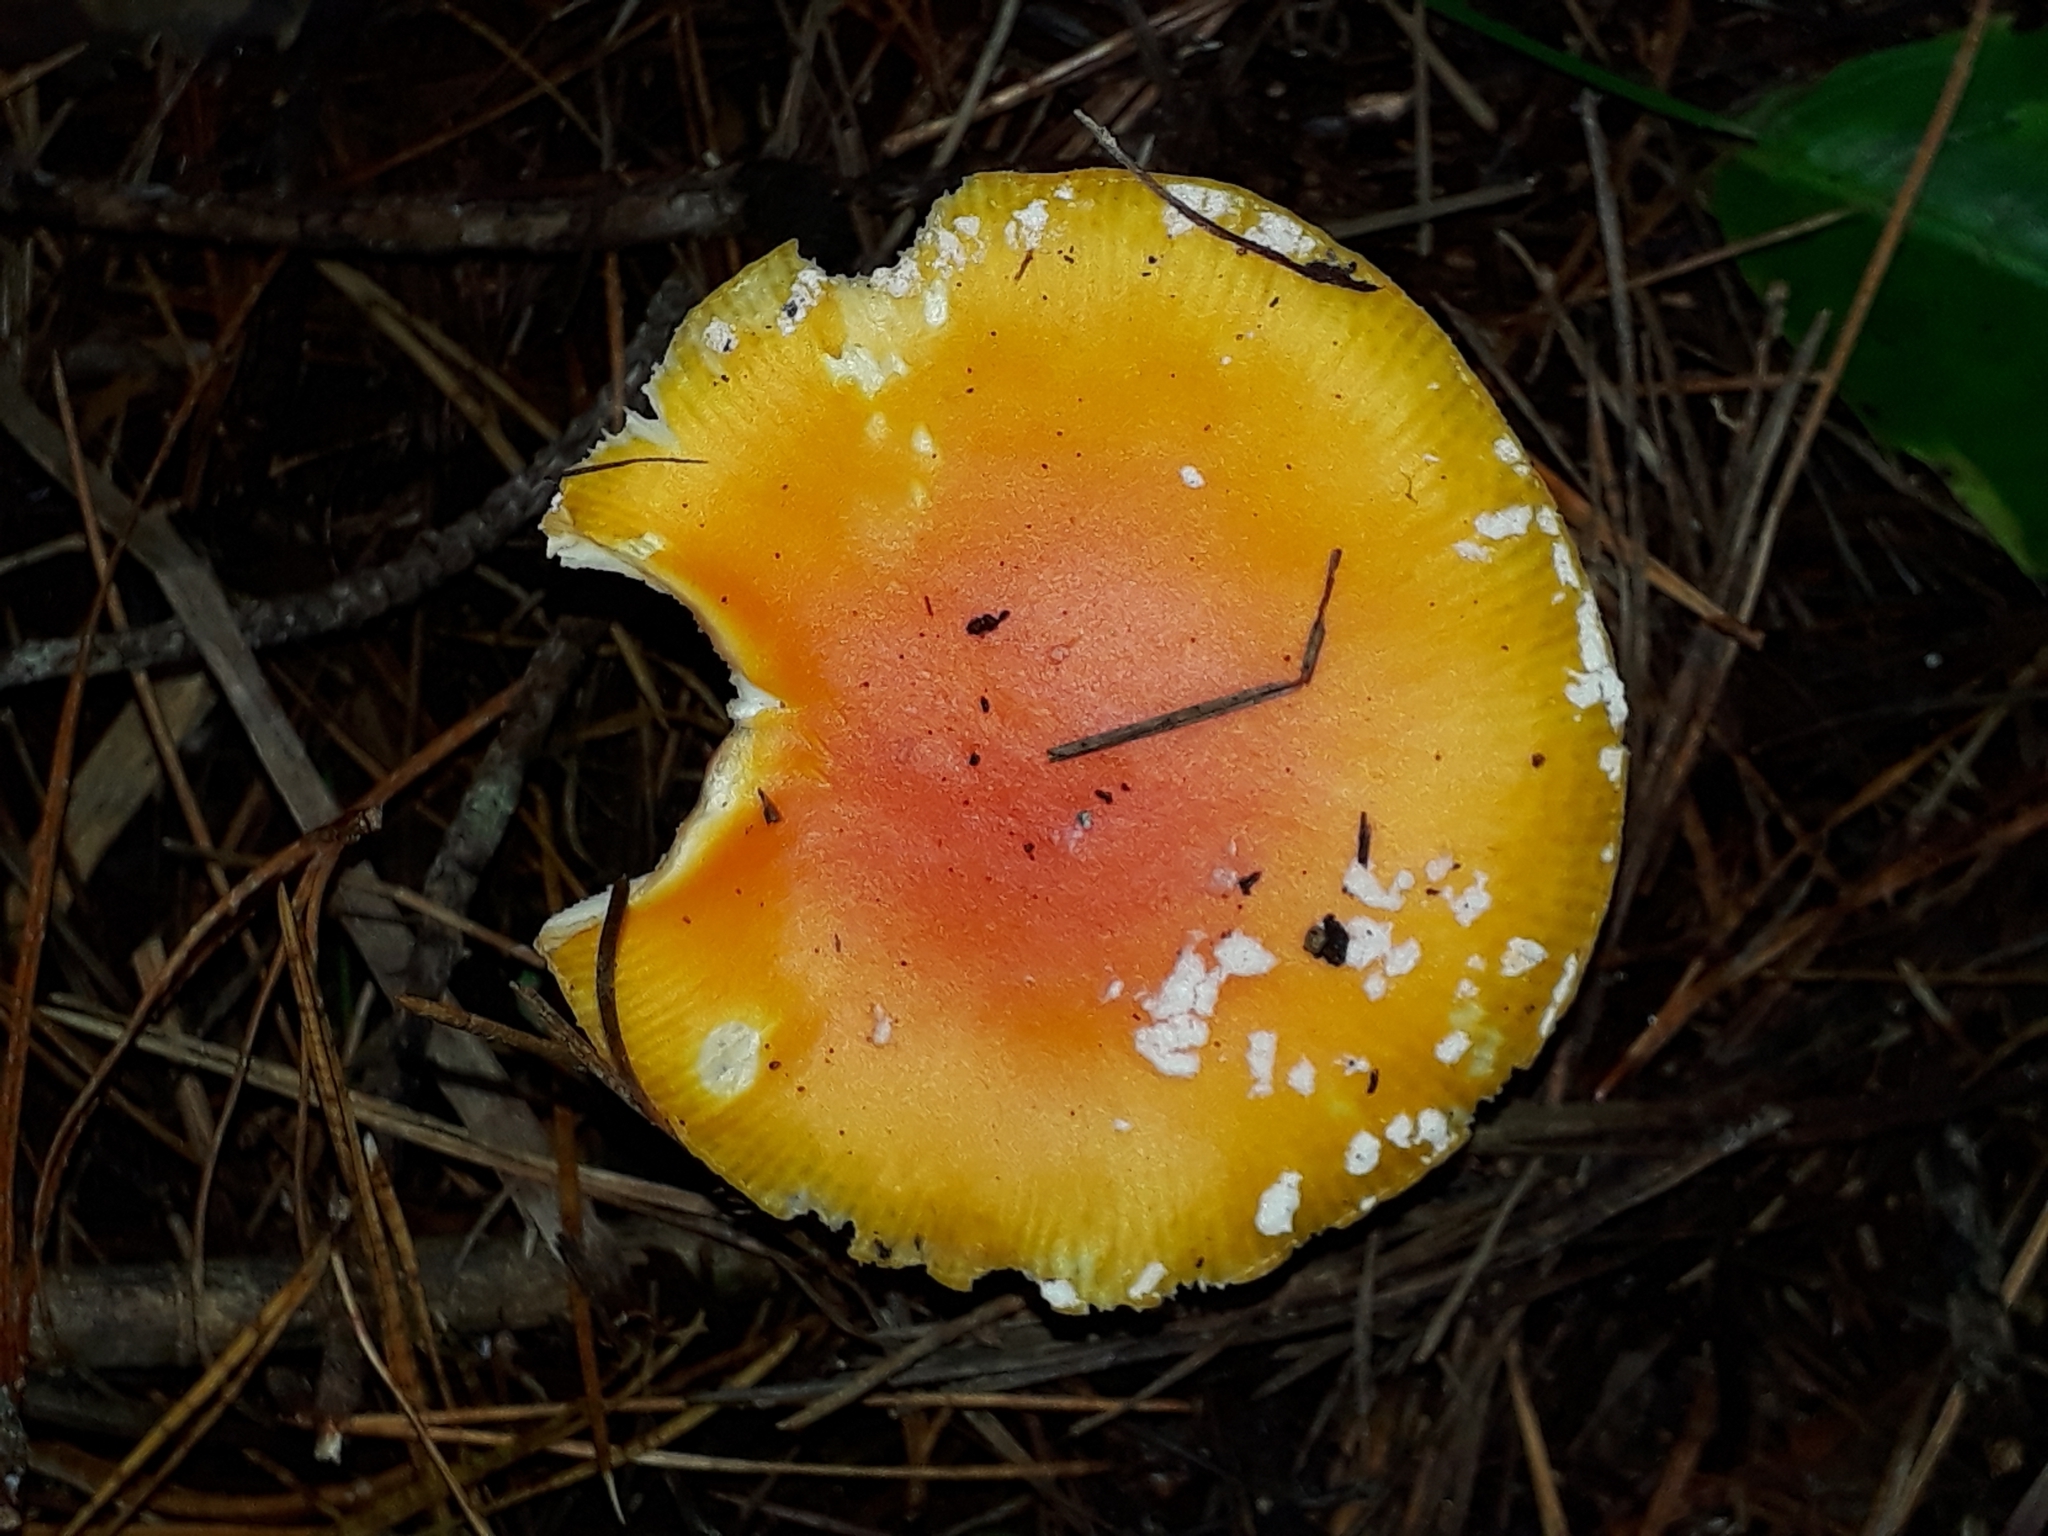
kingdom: Fungi
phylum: Basidiomycota
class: Agaricomycetes
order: Agaricales
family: Amanitaceae
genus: Amanita
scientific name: Amanita muscaria
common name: Fly agaric
